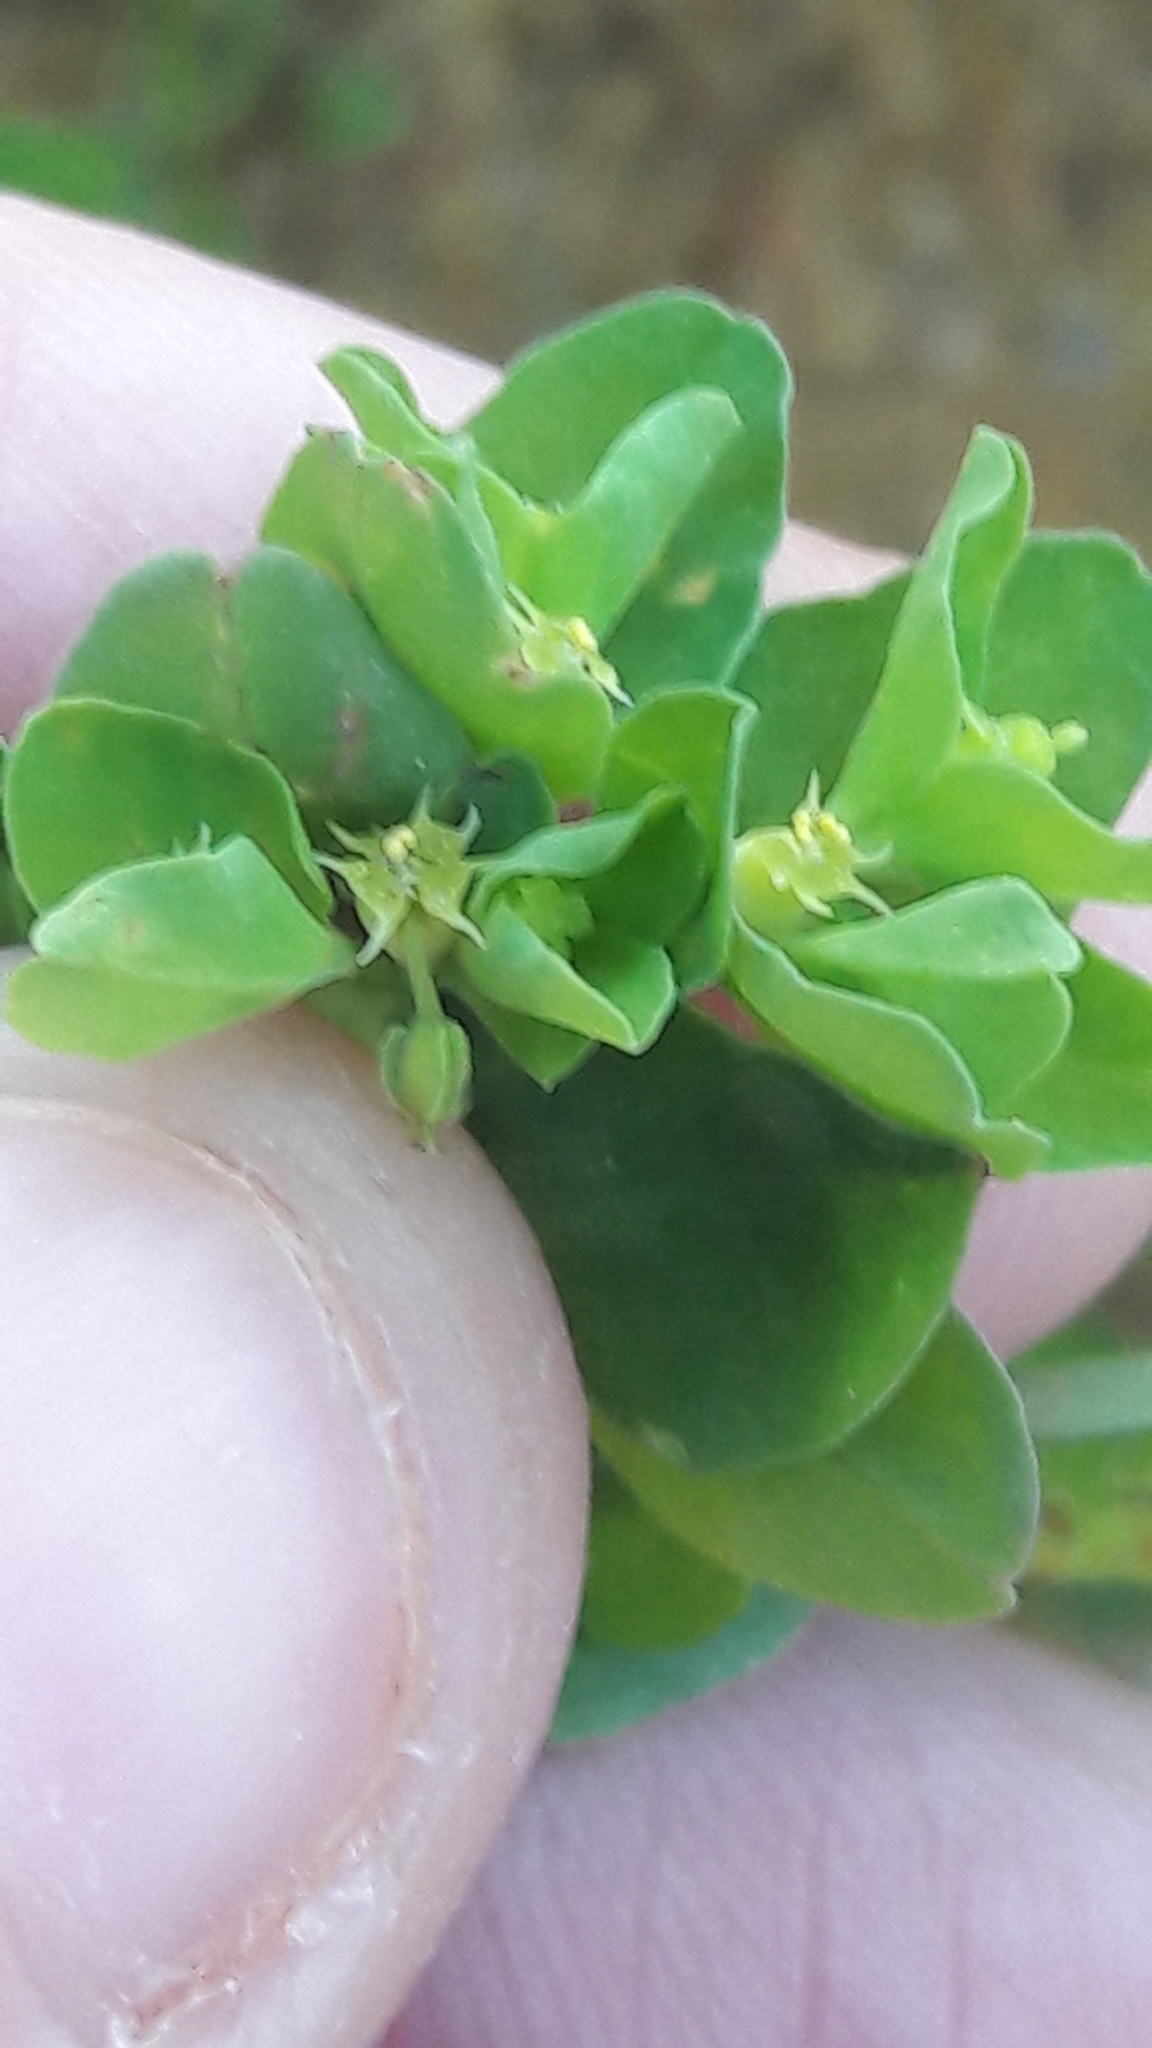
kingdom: Plantae
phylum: Tracheophyta
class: Magnoliopsida
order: Malpighiales
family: Euphorbiaceae
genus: Euphorbia
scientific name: Euphorbia peplus
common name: Petty spurge
